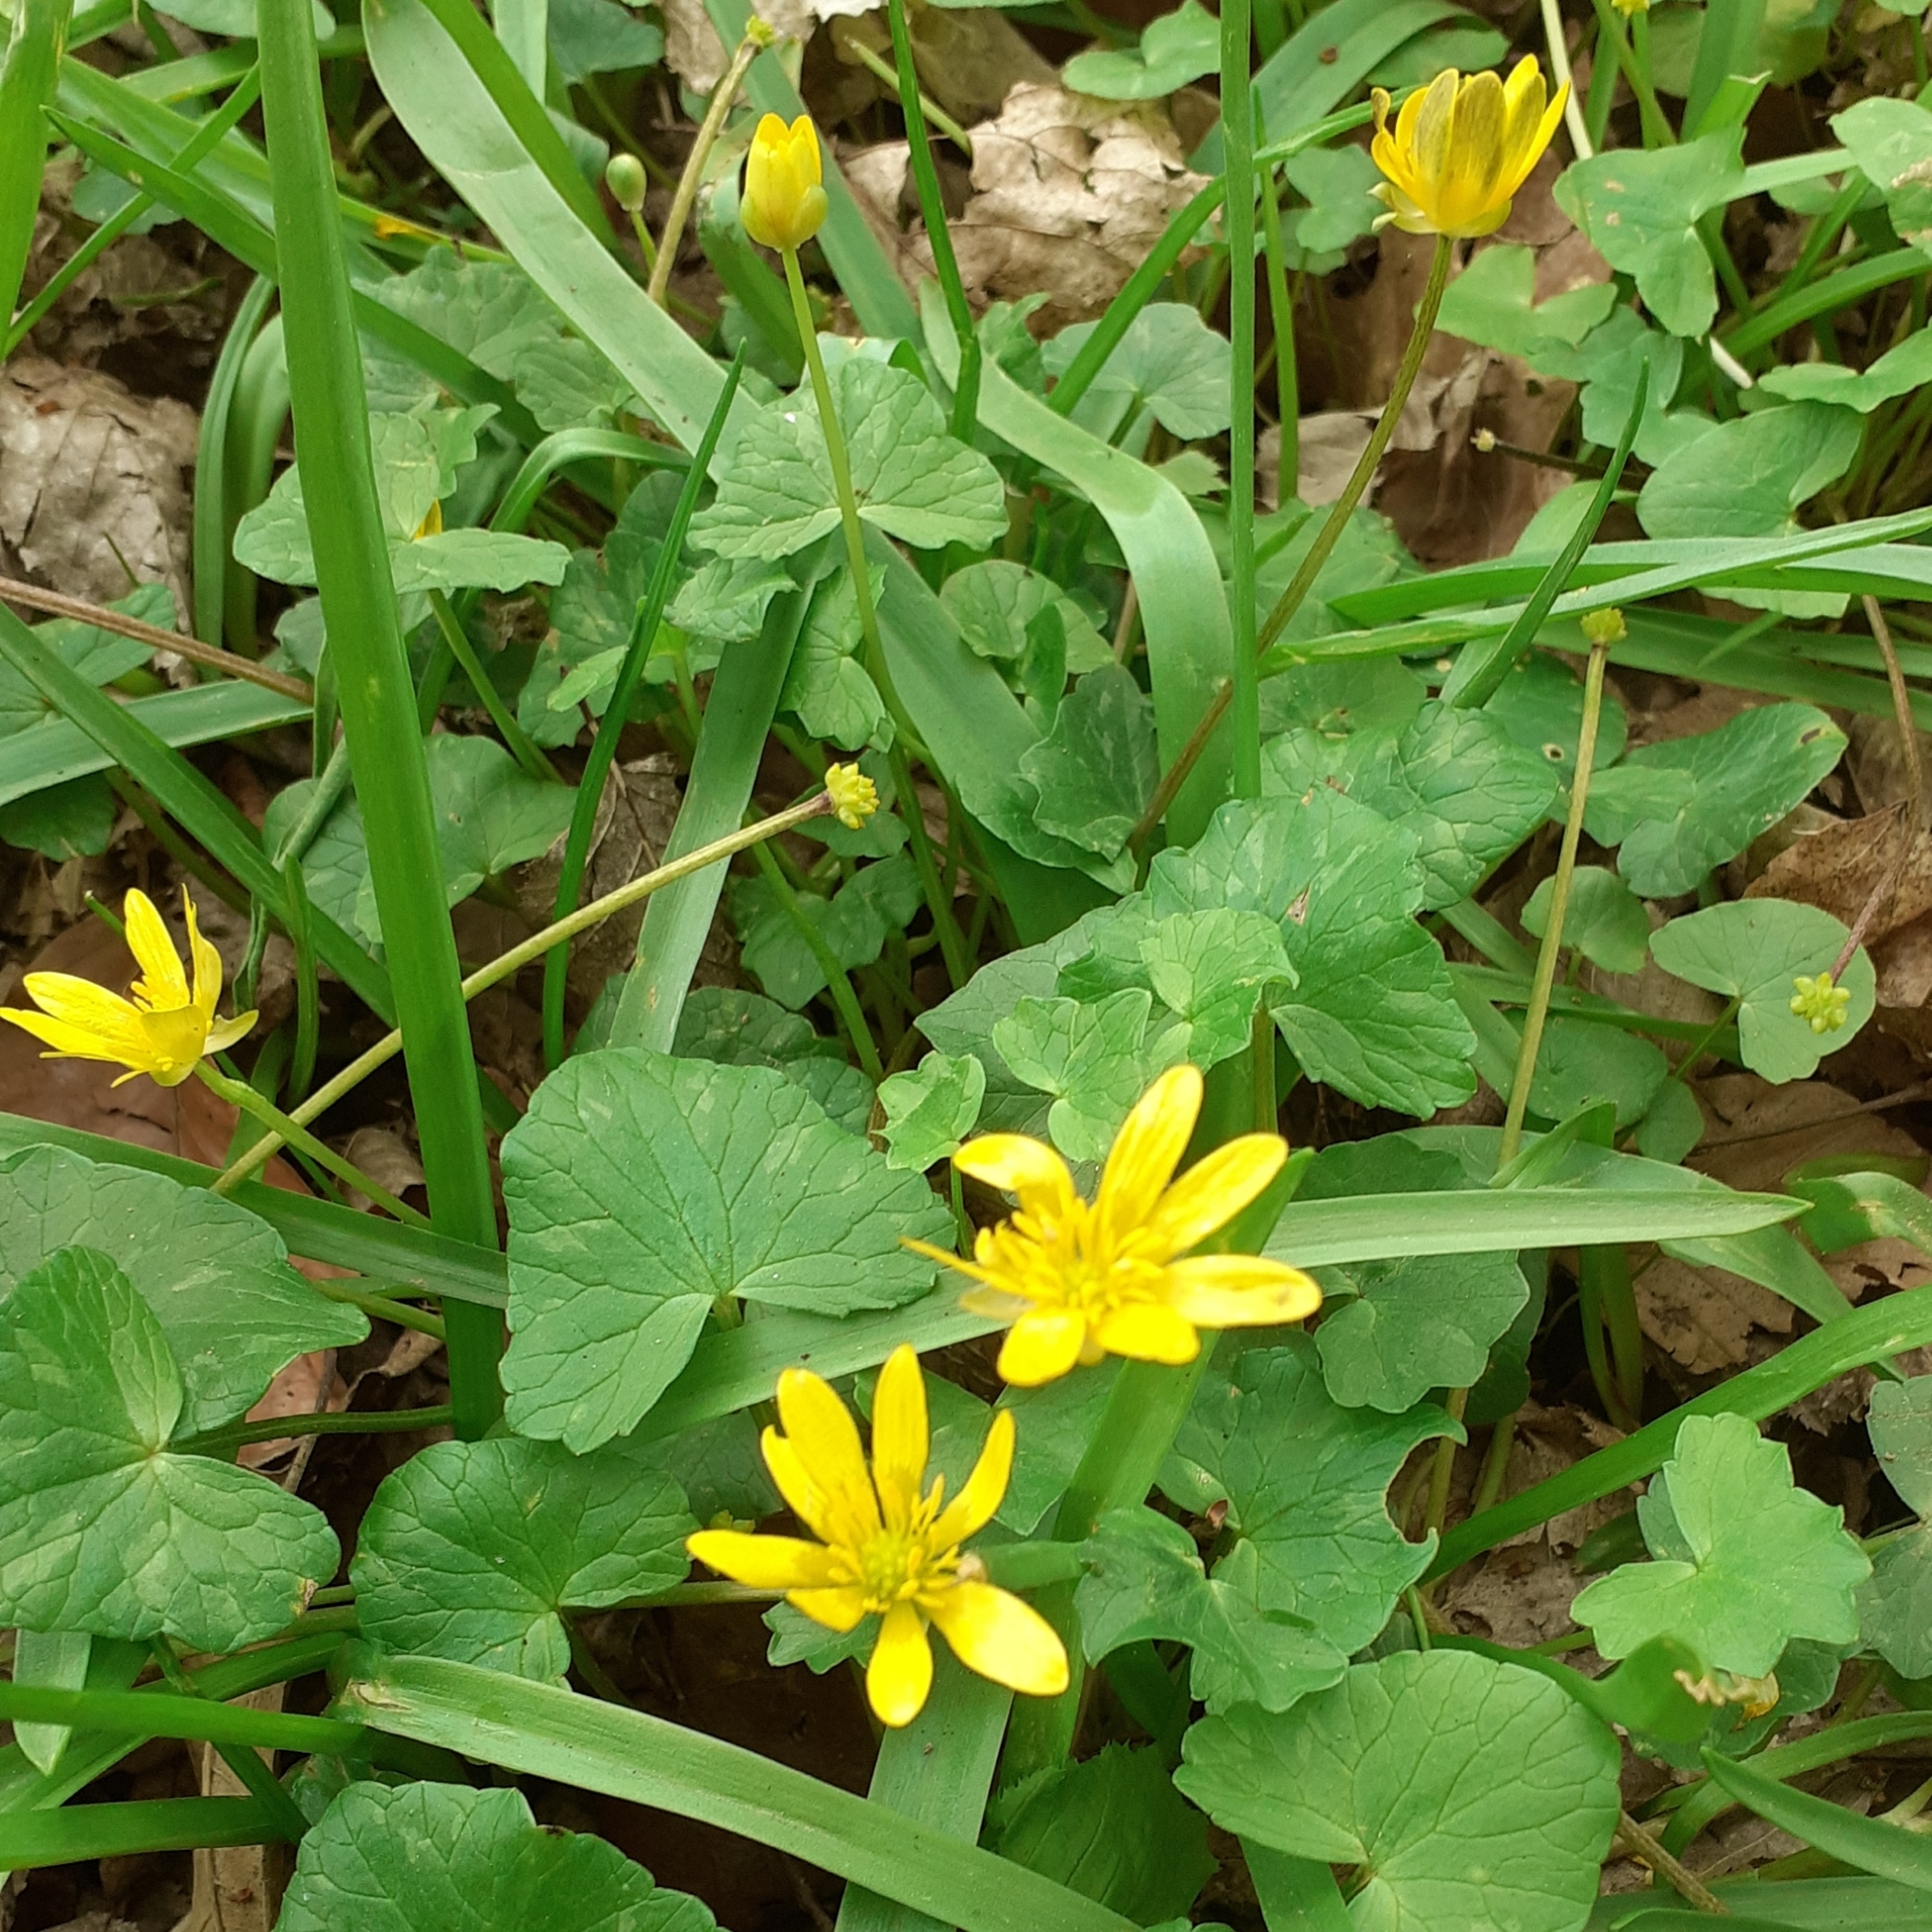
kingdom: Plantae
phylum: Tracheophyta
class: Magnoliopsida
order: Ranunculales
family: Ranunculaceae
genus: Ficaria
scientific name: Ficaria verna
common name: Lesser celandine
